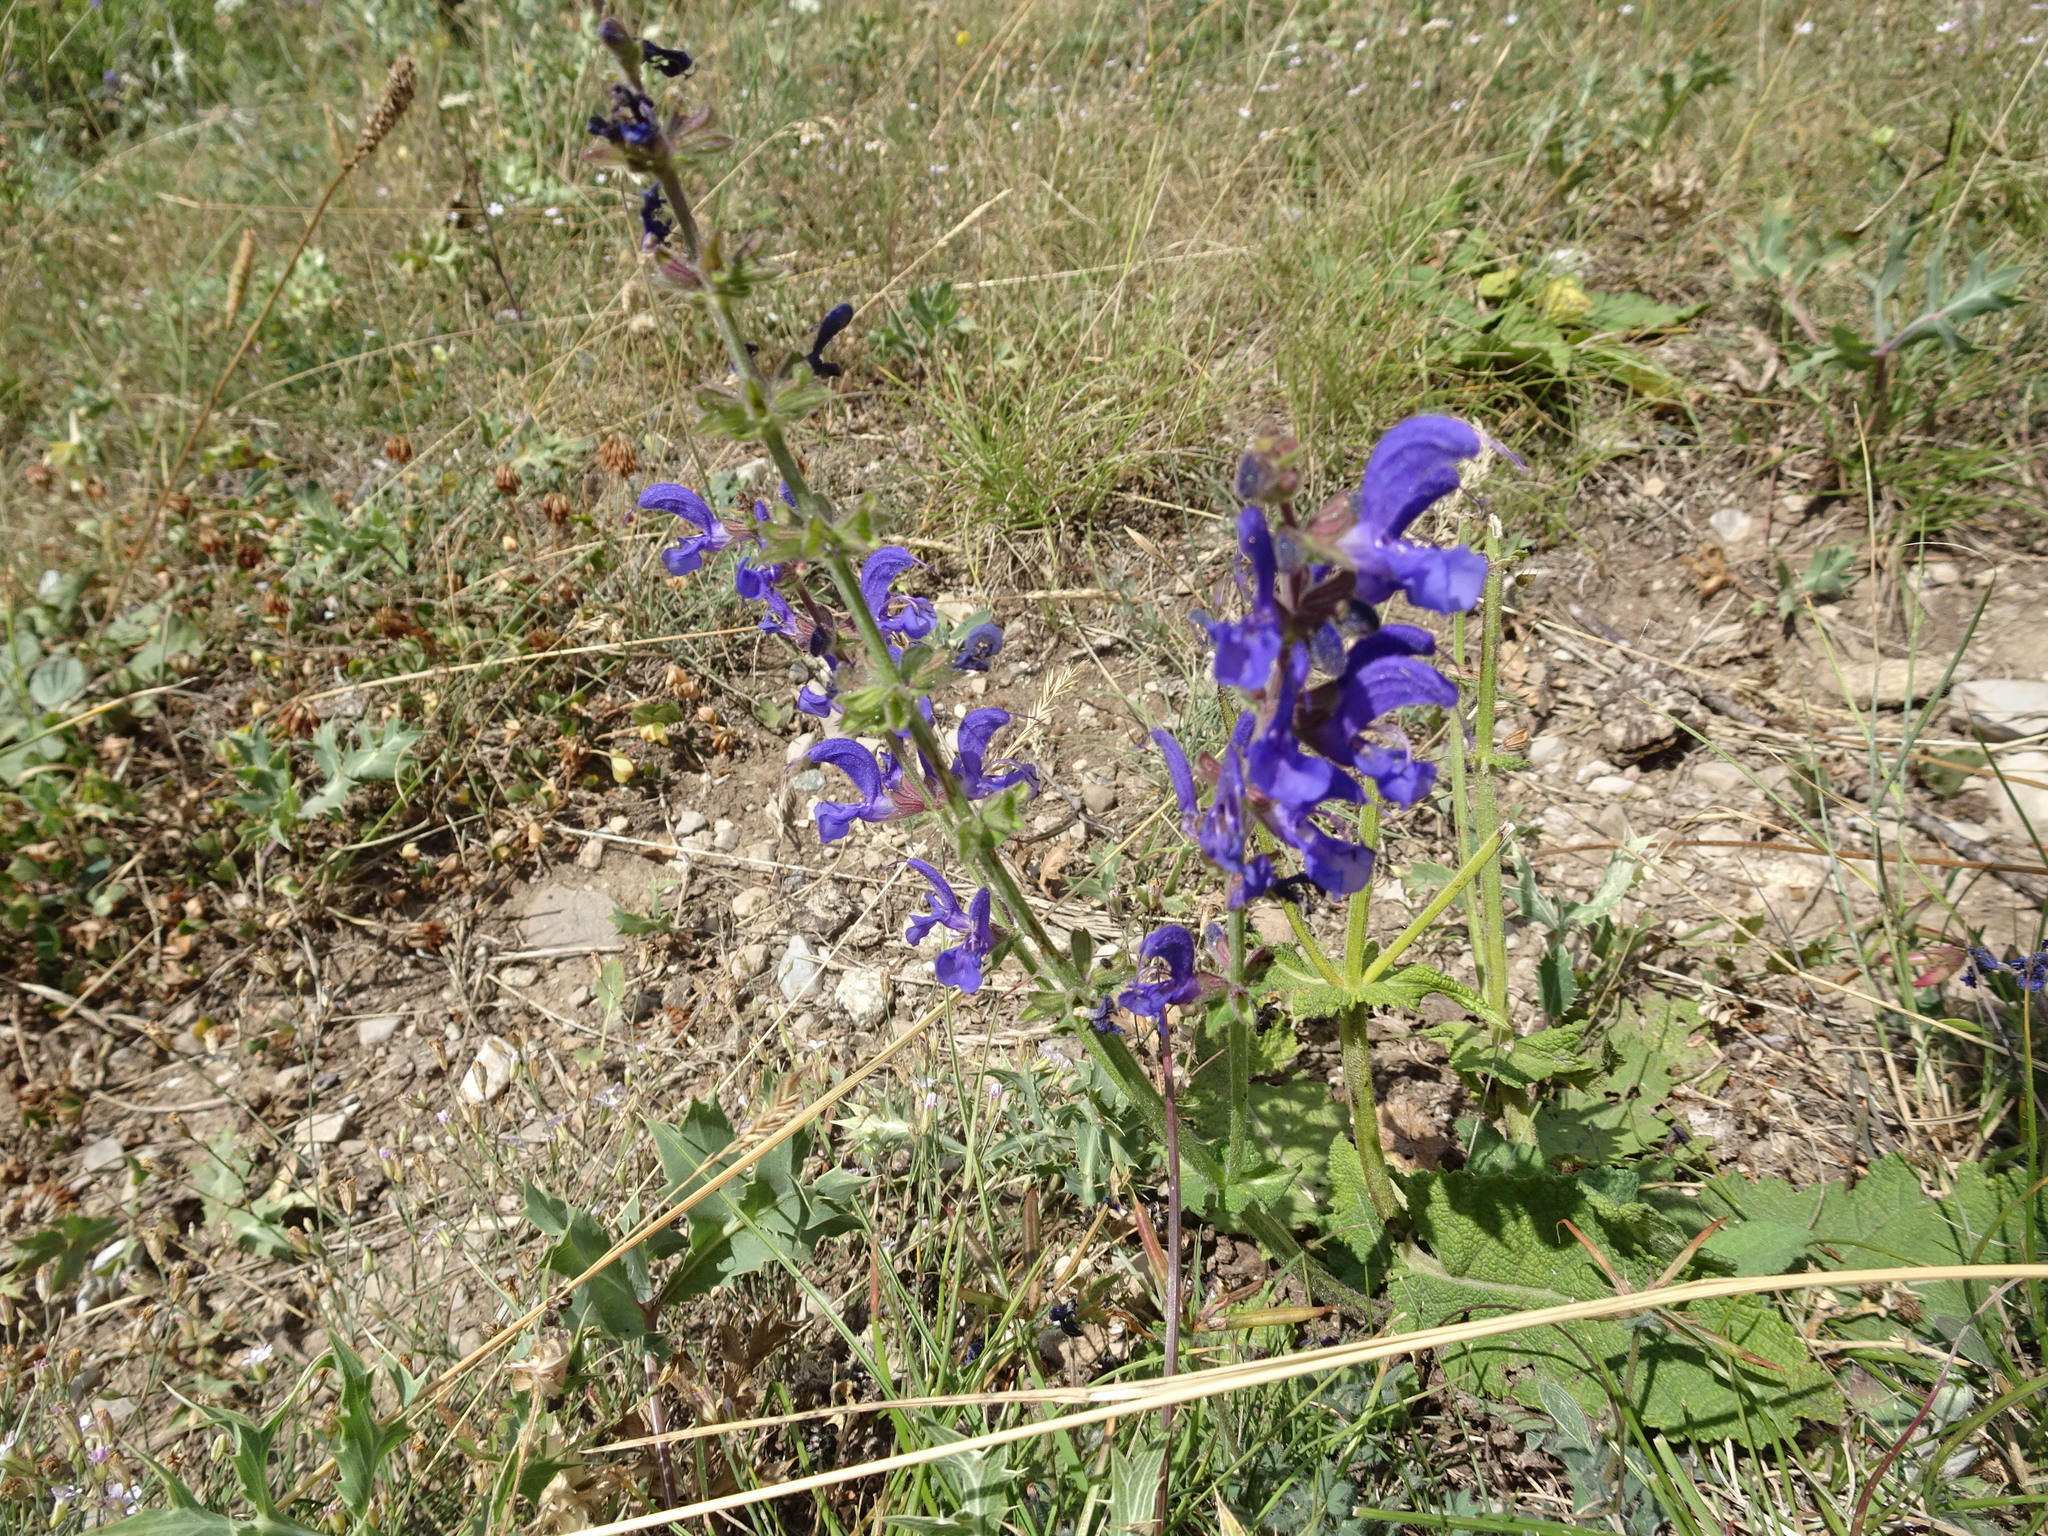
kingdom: Plantae
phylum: Tracheophyta
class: Magnoliopsida
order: Lamiales
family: Lamiaceae
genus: Salvia
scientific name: Salvia pratensis
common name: Meadow sage
